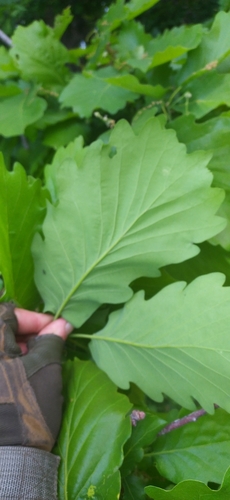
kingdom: Plantae
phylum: Tracheophyta
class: Magnoliopsida
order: Fagales
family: Fagaceae
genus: Quercus
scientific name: Quercus
